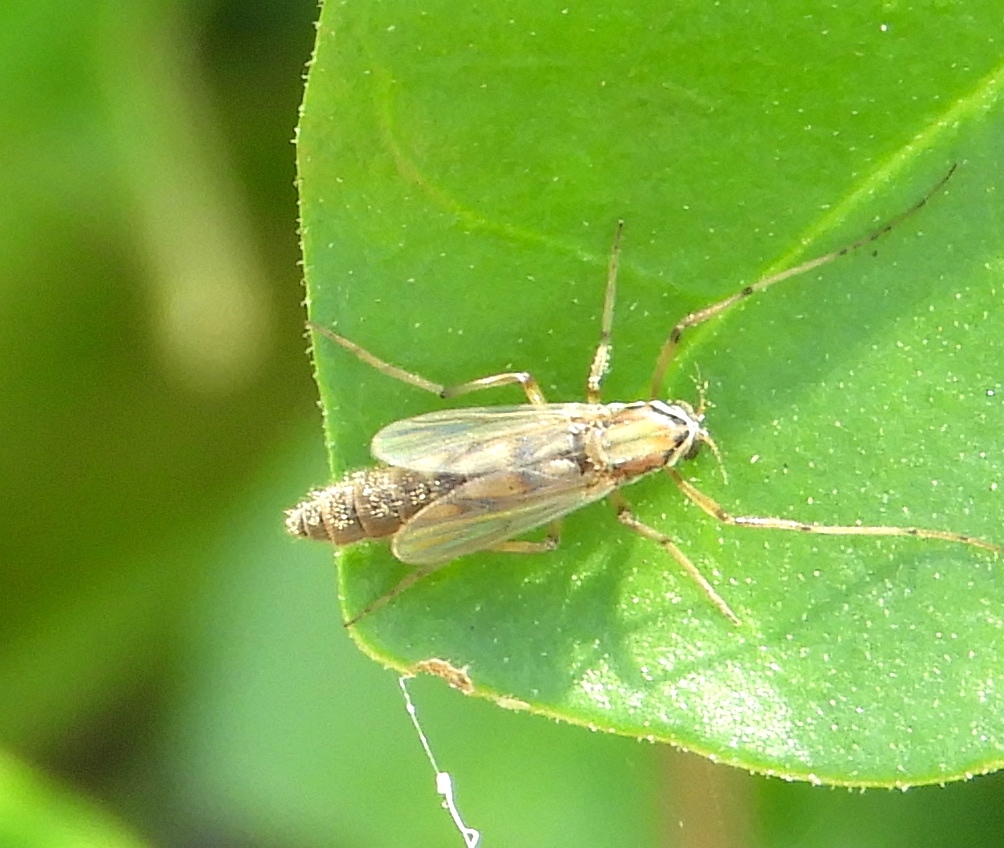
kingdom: Animalia
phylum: Arthropoda
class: Insecta
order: Diptera
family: Chironomidae
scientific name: Chironomidae
